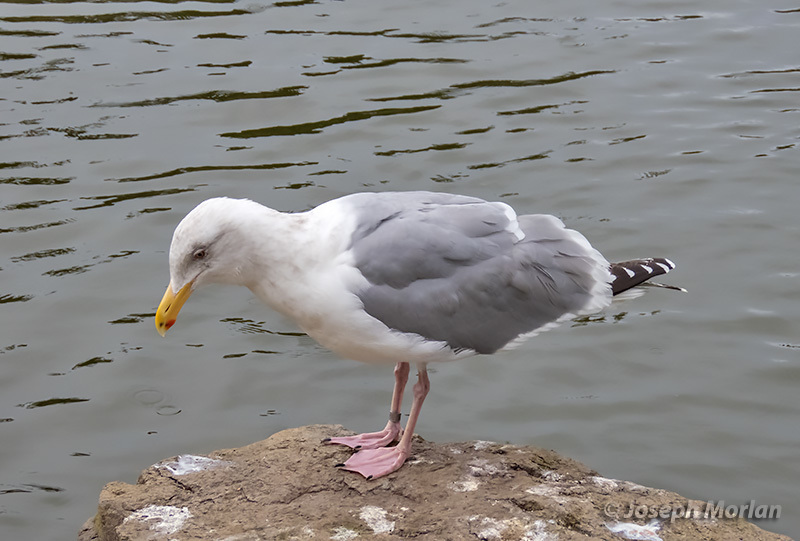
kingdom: Animalia
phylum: Chordata
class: Aves
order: Charadriiformes
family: Laridae
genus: Larus
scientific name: Larus
